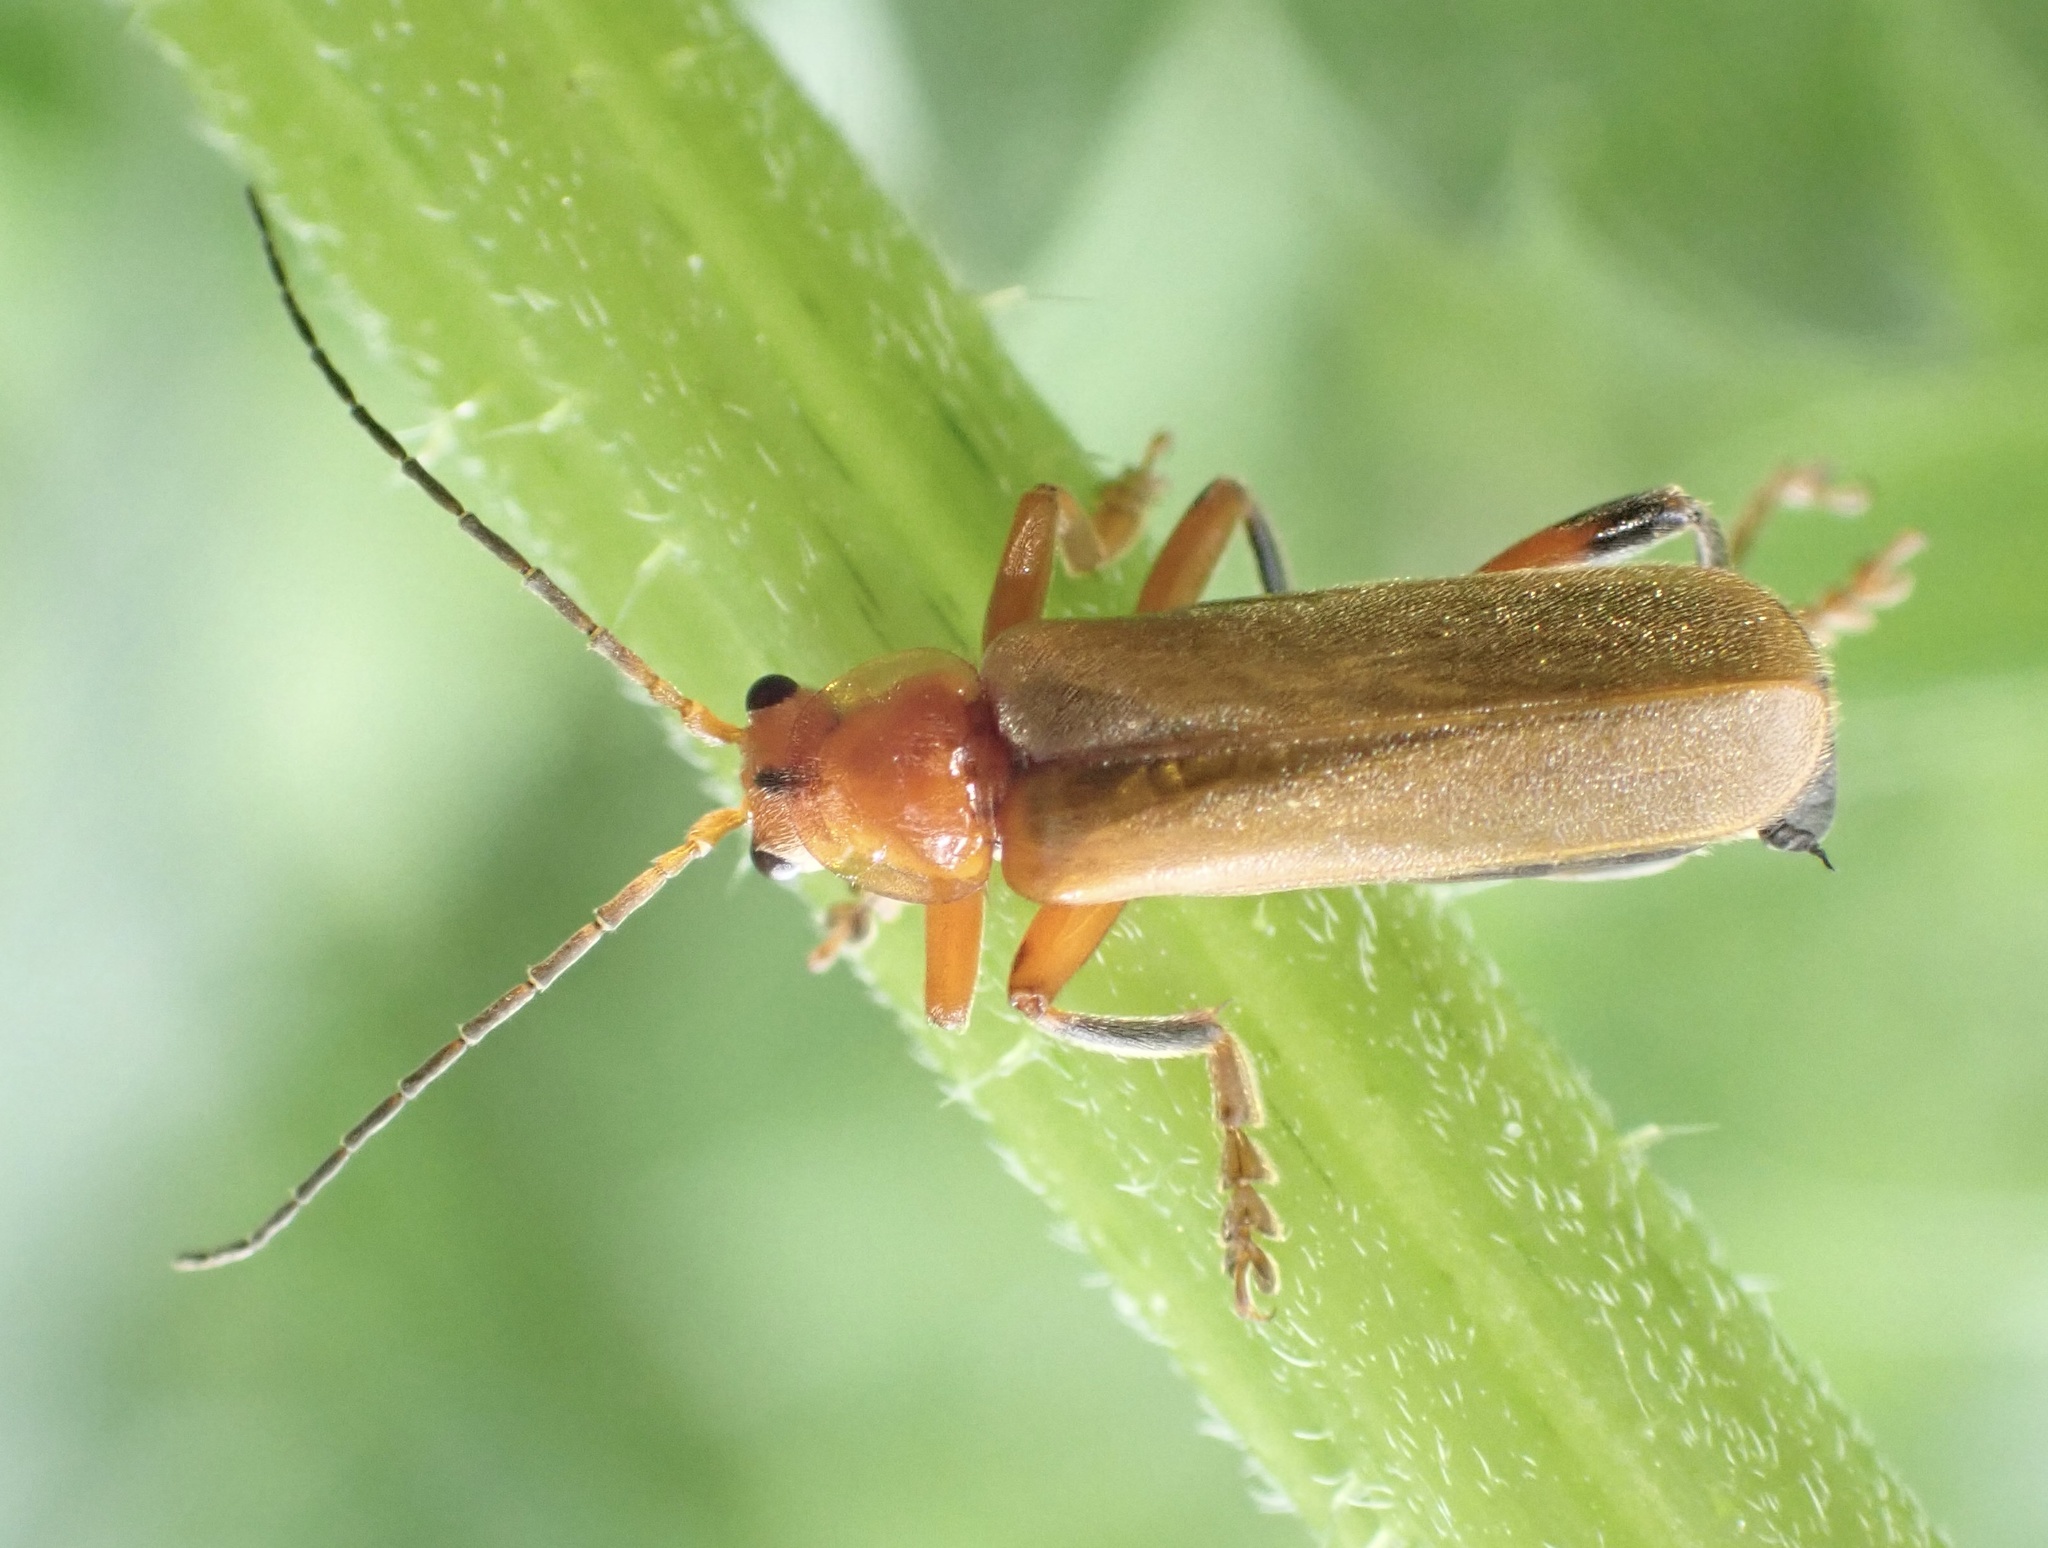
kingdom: Animalia
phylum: Arthropoda
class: Insecta
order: Coleoptera
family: Cantharidae
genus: Cantharis
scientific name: Cantharis livida
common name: Livid soldier beetle
